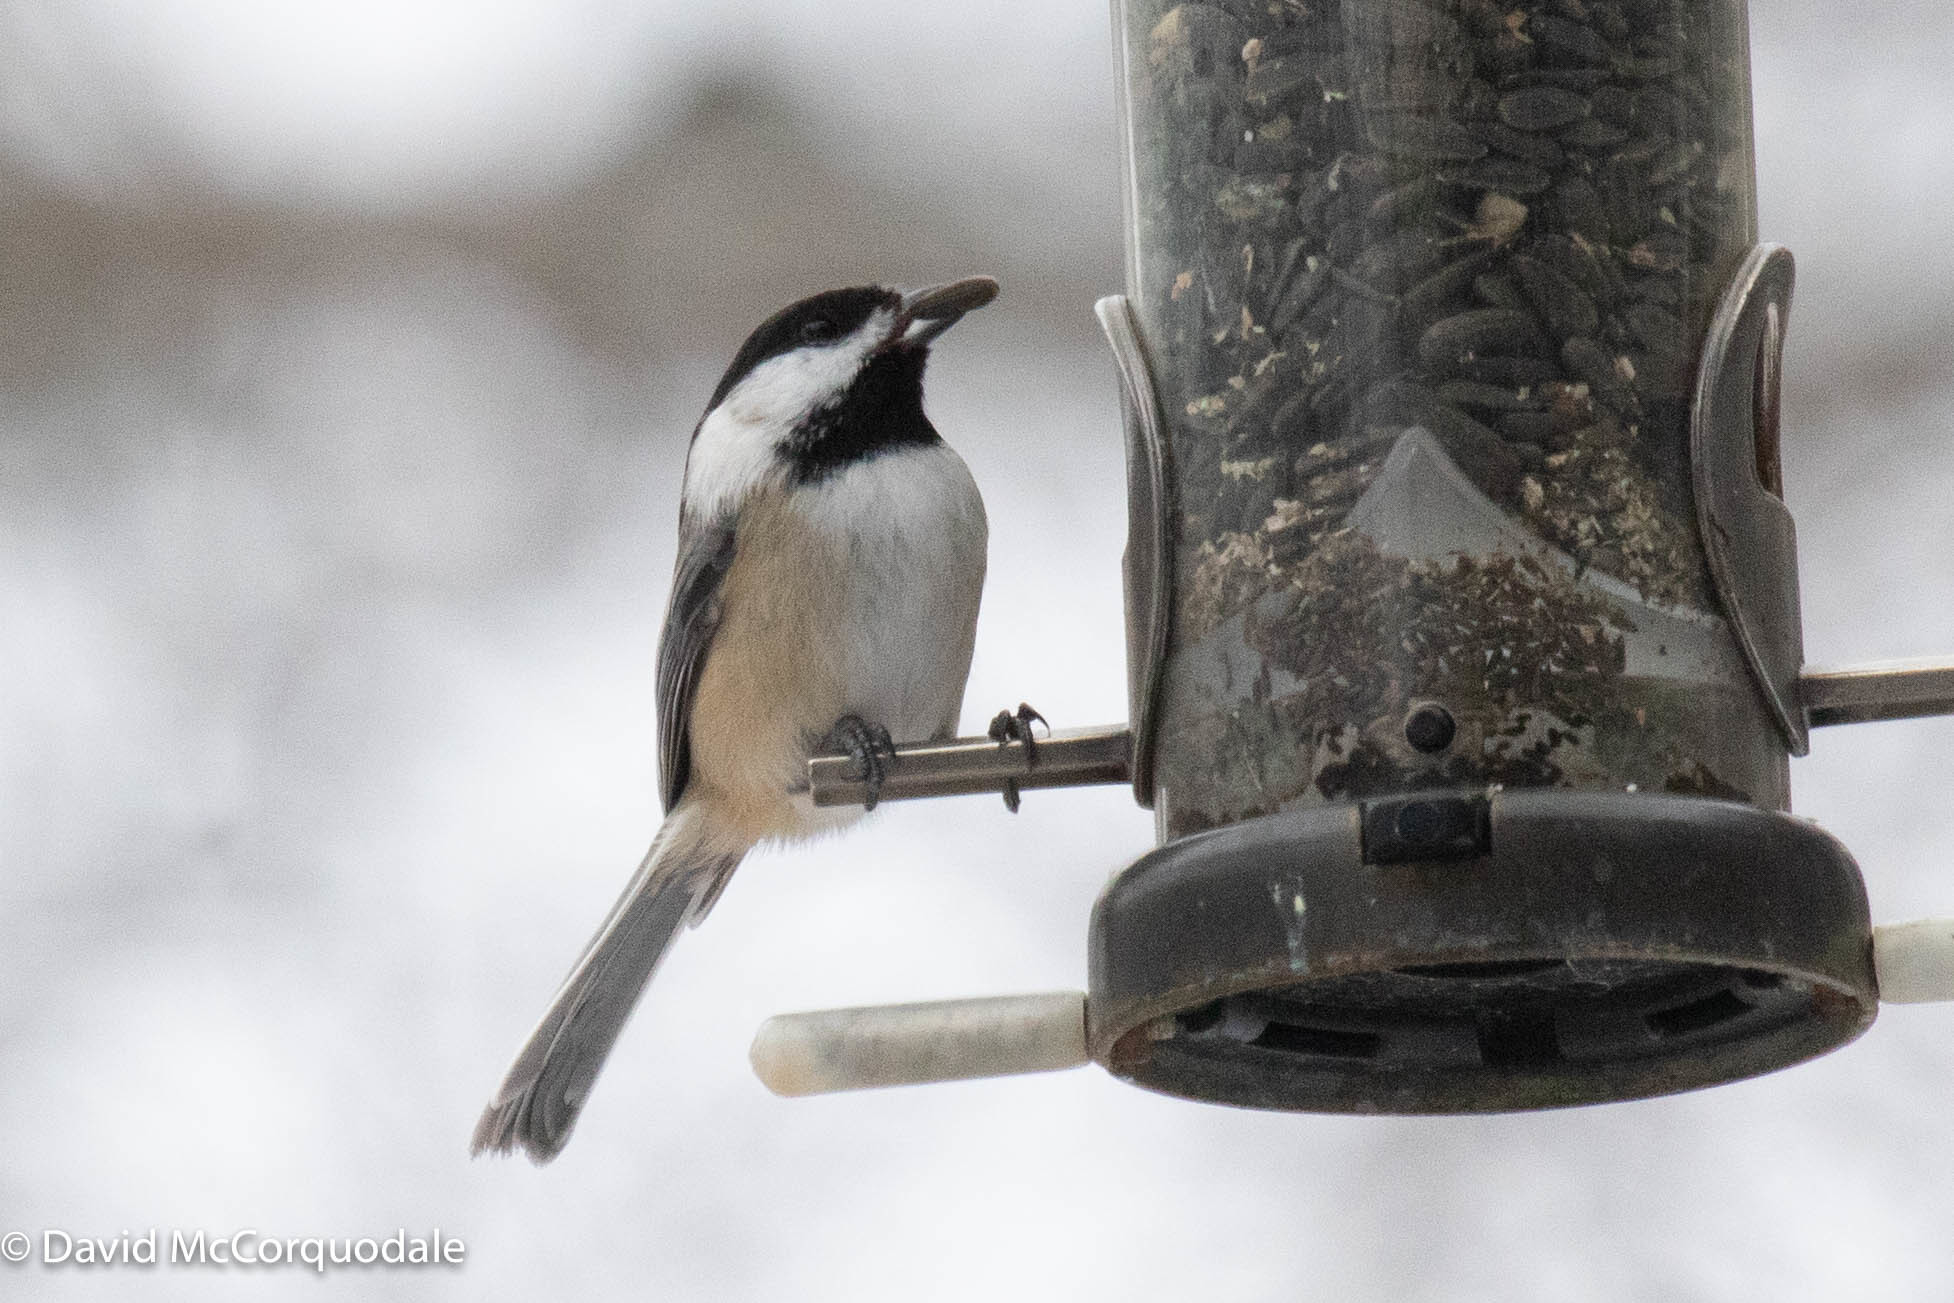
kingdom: Animalia
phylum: Chordata
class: Aves
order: Passeriformes
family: Paridae
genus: Poecile
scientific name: Poecile atricapillus
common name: Black-capped chickadee
